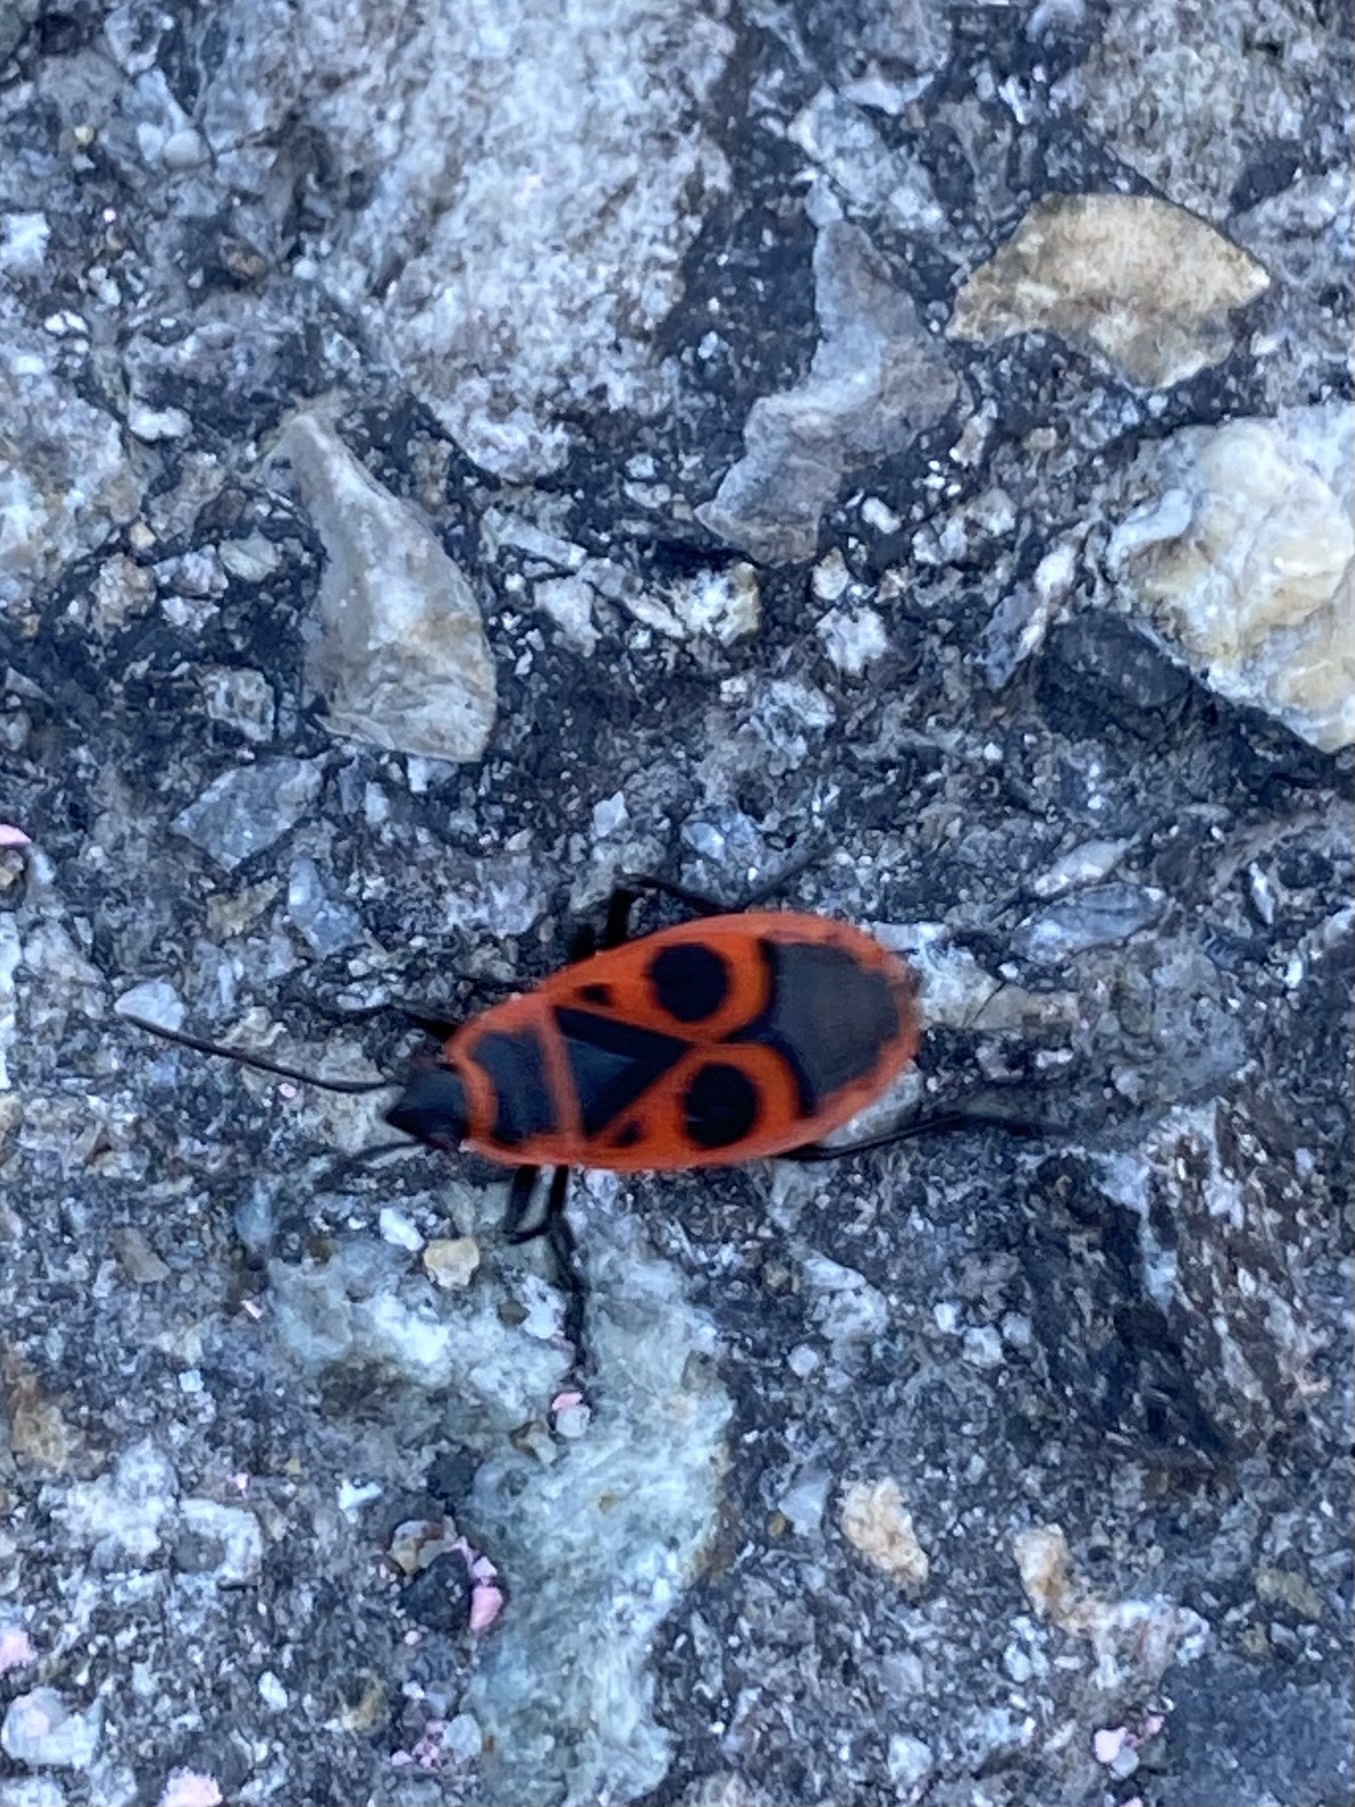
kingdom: Animalia
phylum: Arthropoda
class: Insecta
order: Hemiptera
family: Pyrrhocoridae
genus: Pyrrhocoris
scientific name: Pyrrhocoris apterus
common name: Firebug
